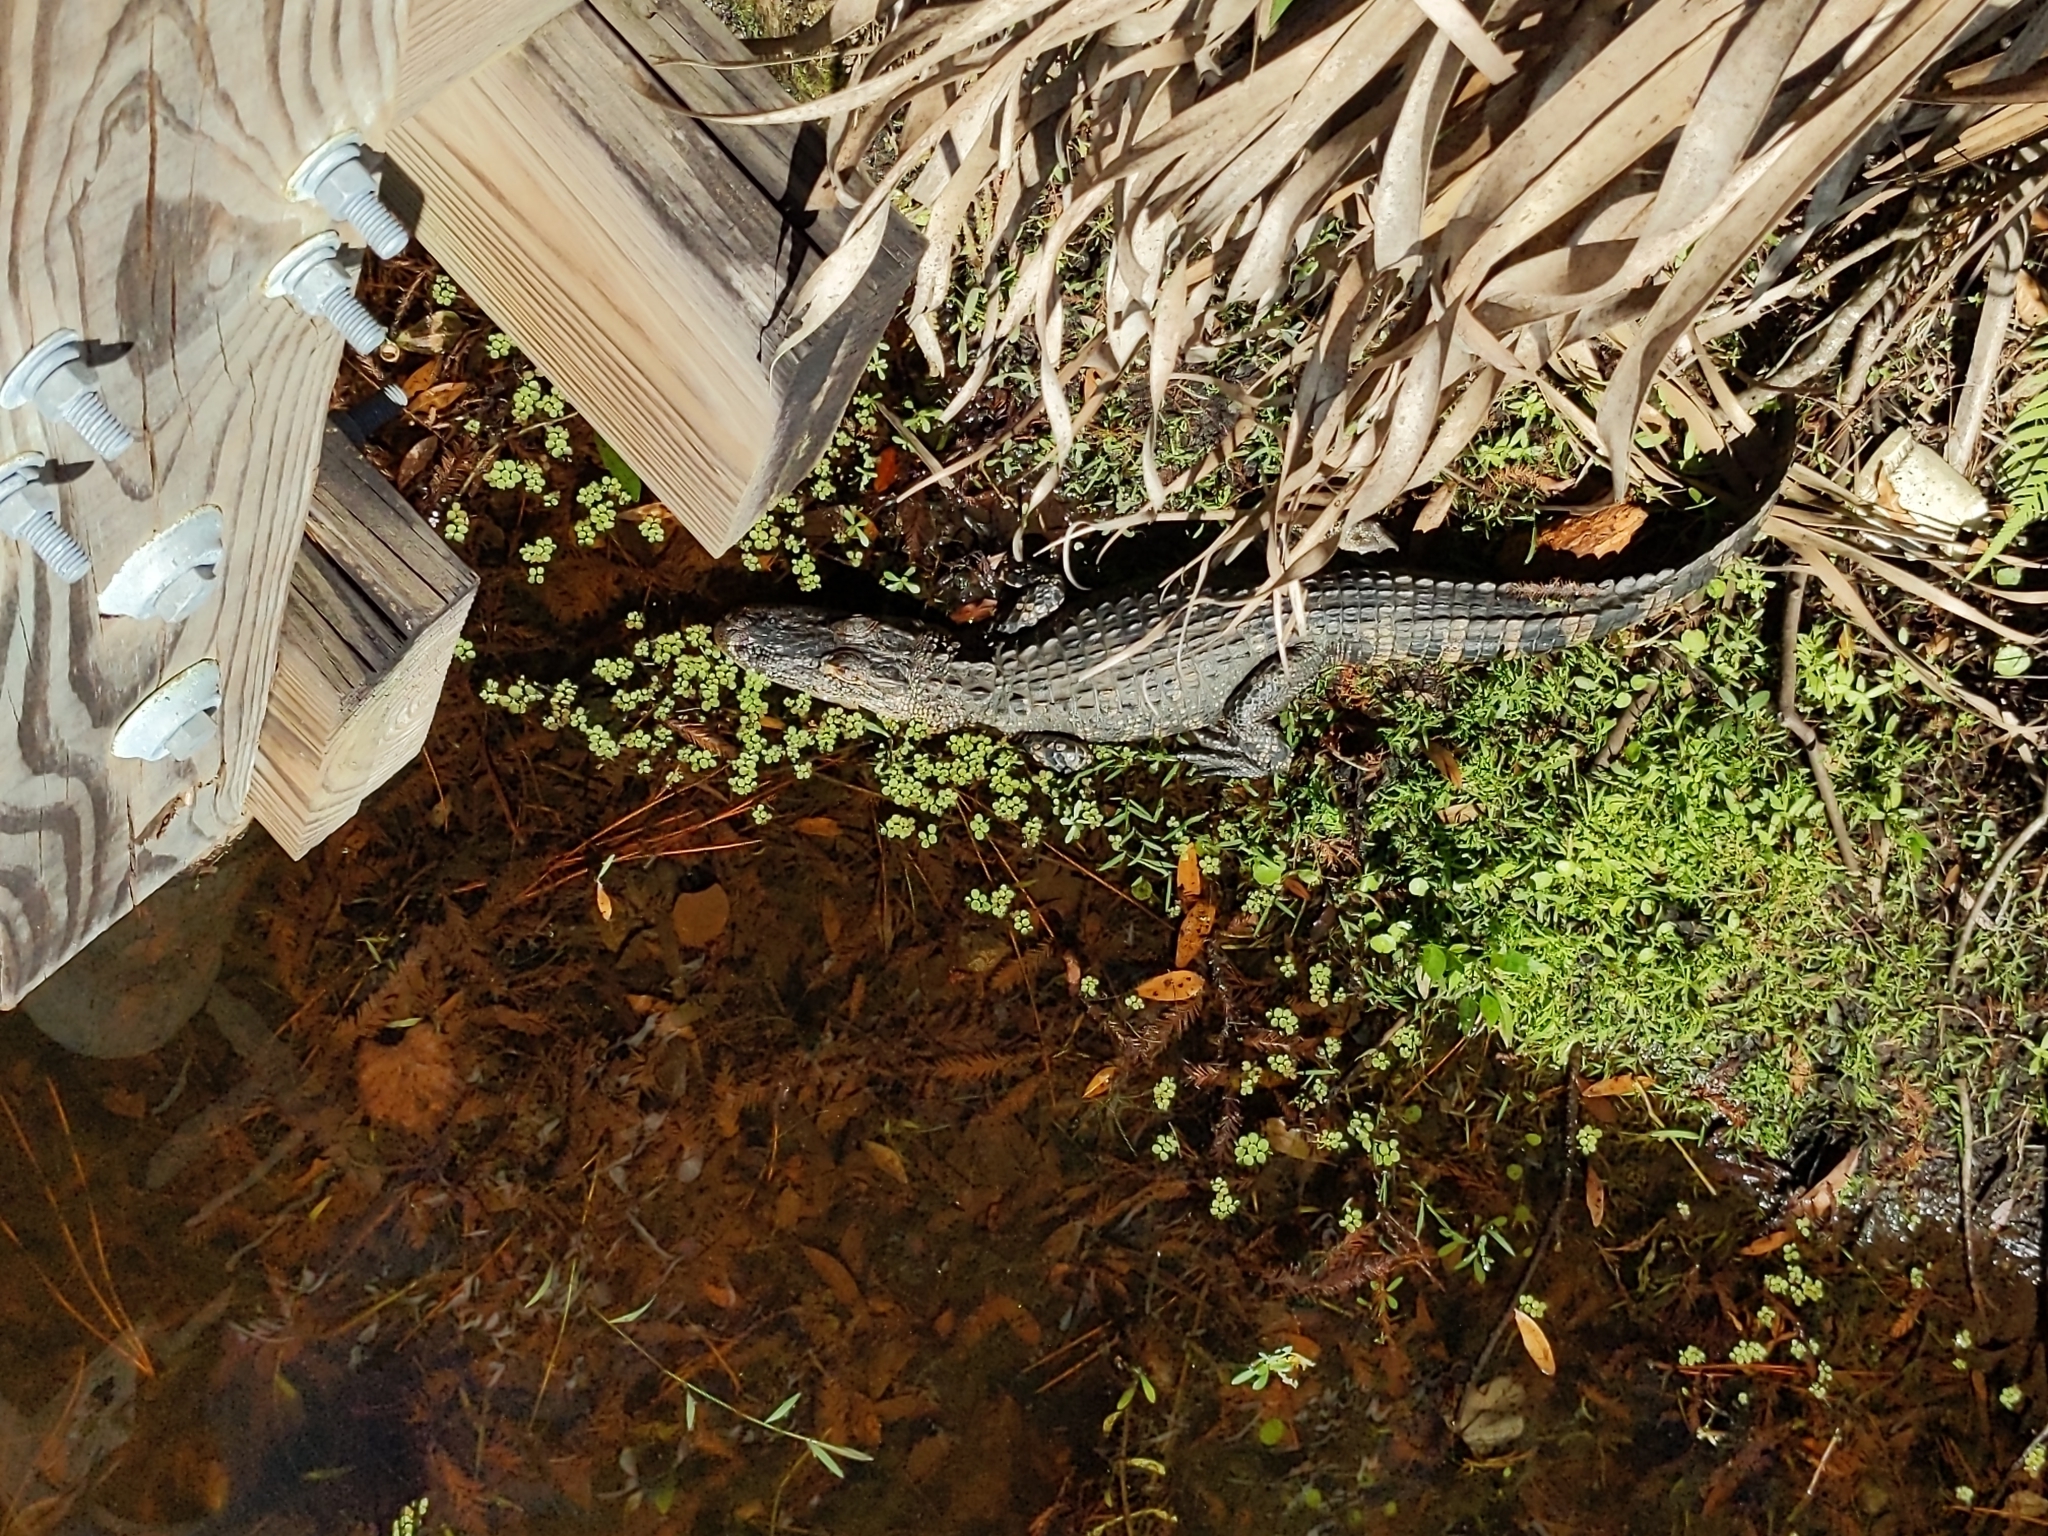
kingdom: Animalia
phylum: Chordata
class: Crocodylia
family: Alligatoridae
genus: Alligator
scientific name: Alligator mississippiensis
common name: American alligator
